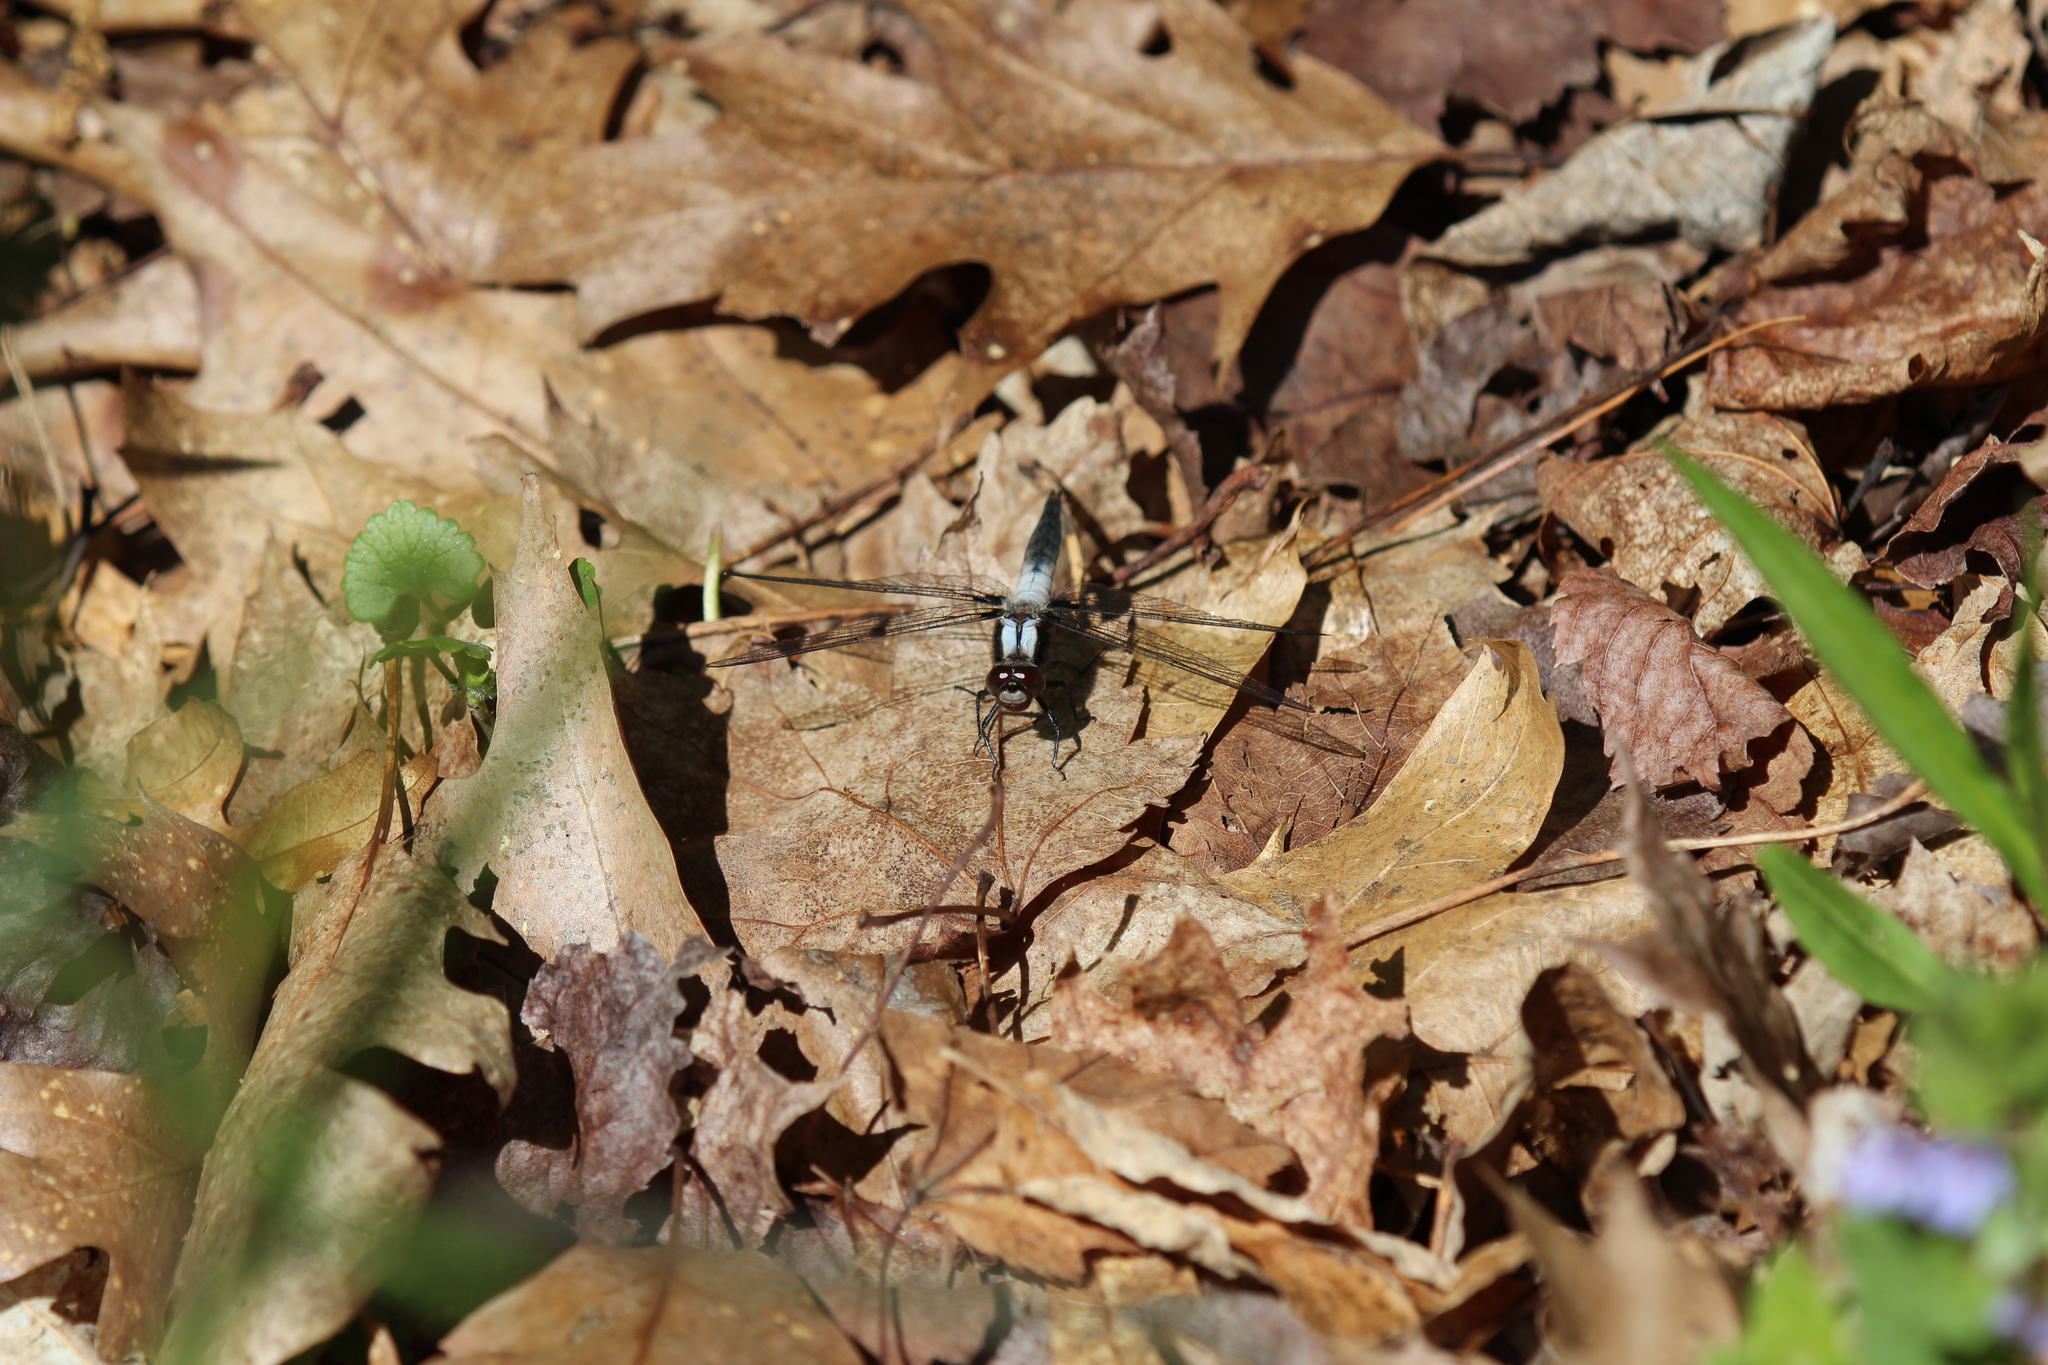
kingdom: Animalia
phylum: Arthropoda
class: Insecta
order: Odonata
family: Libellulidae
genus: Ladona
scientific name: Ladona julia
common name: Chalk-fronted corporal
